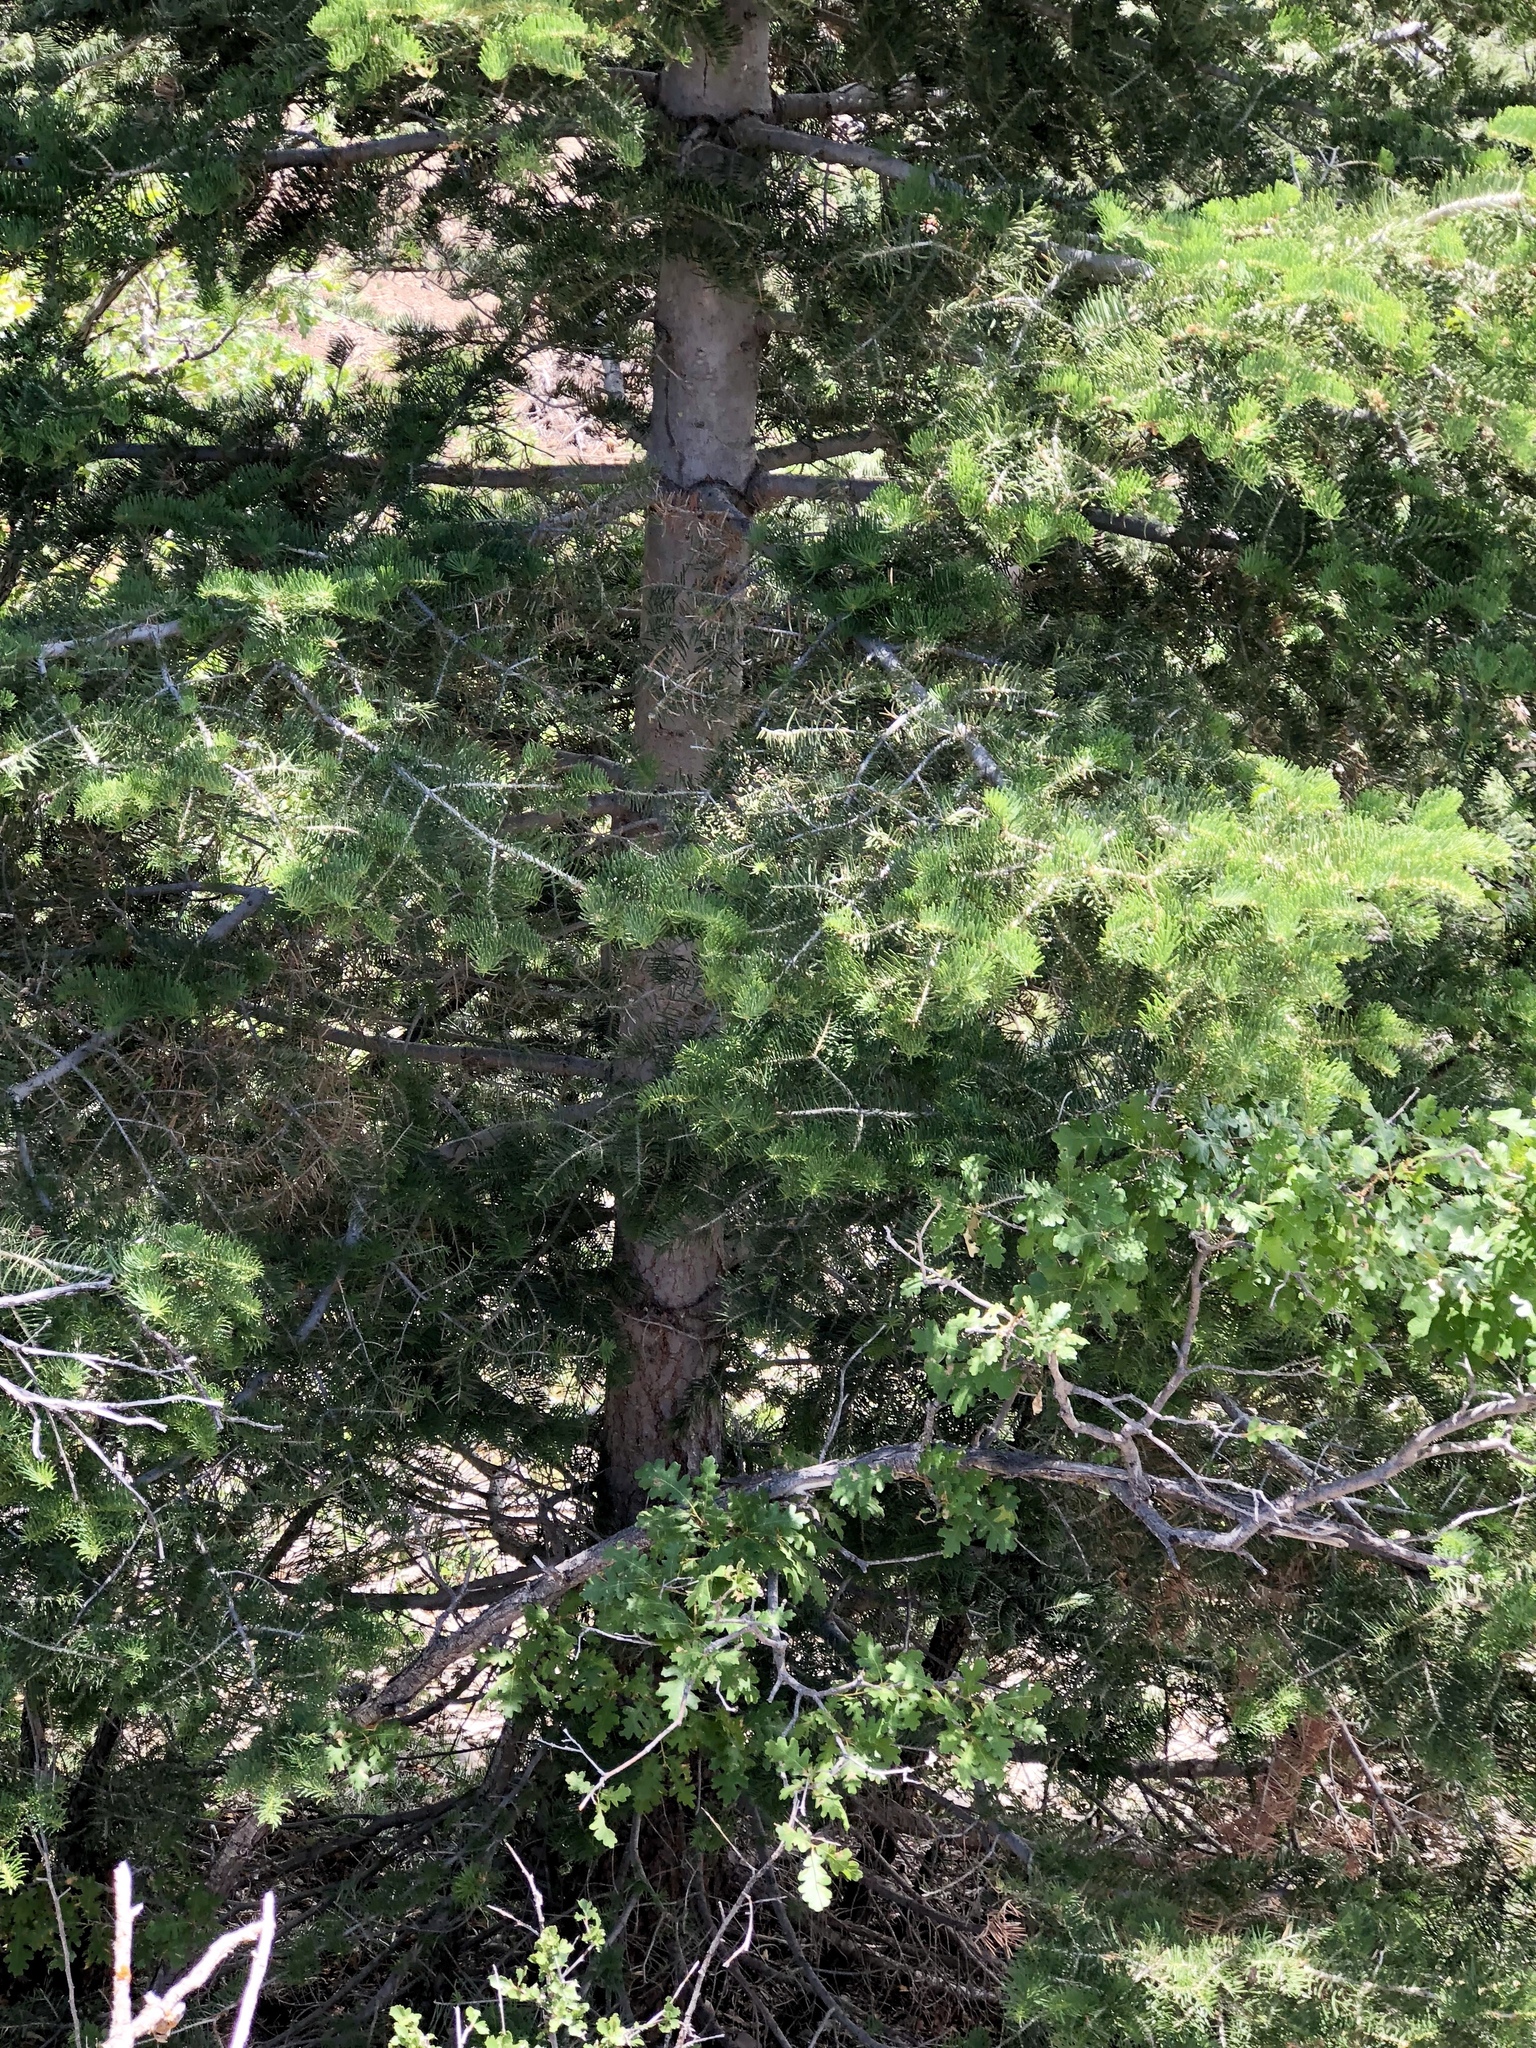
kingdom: Plantae
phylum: Tracheophyta
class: Pinopsida
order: Pinales
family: Pinaceae
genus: Abies
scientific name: Abies concolor
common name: Colorado fir
